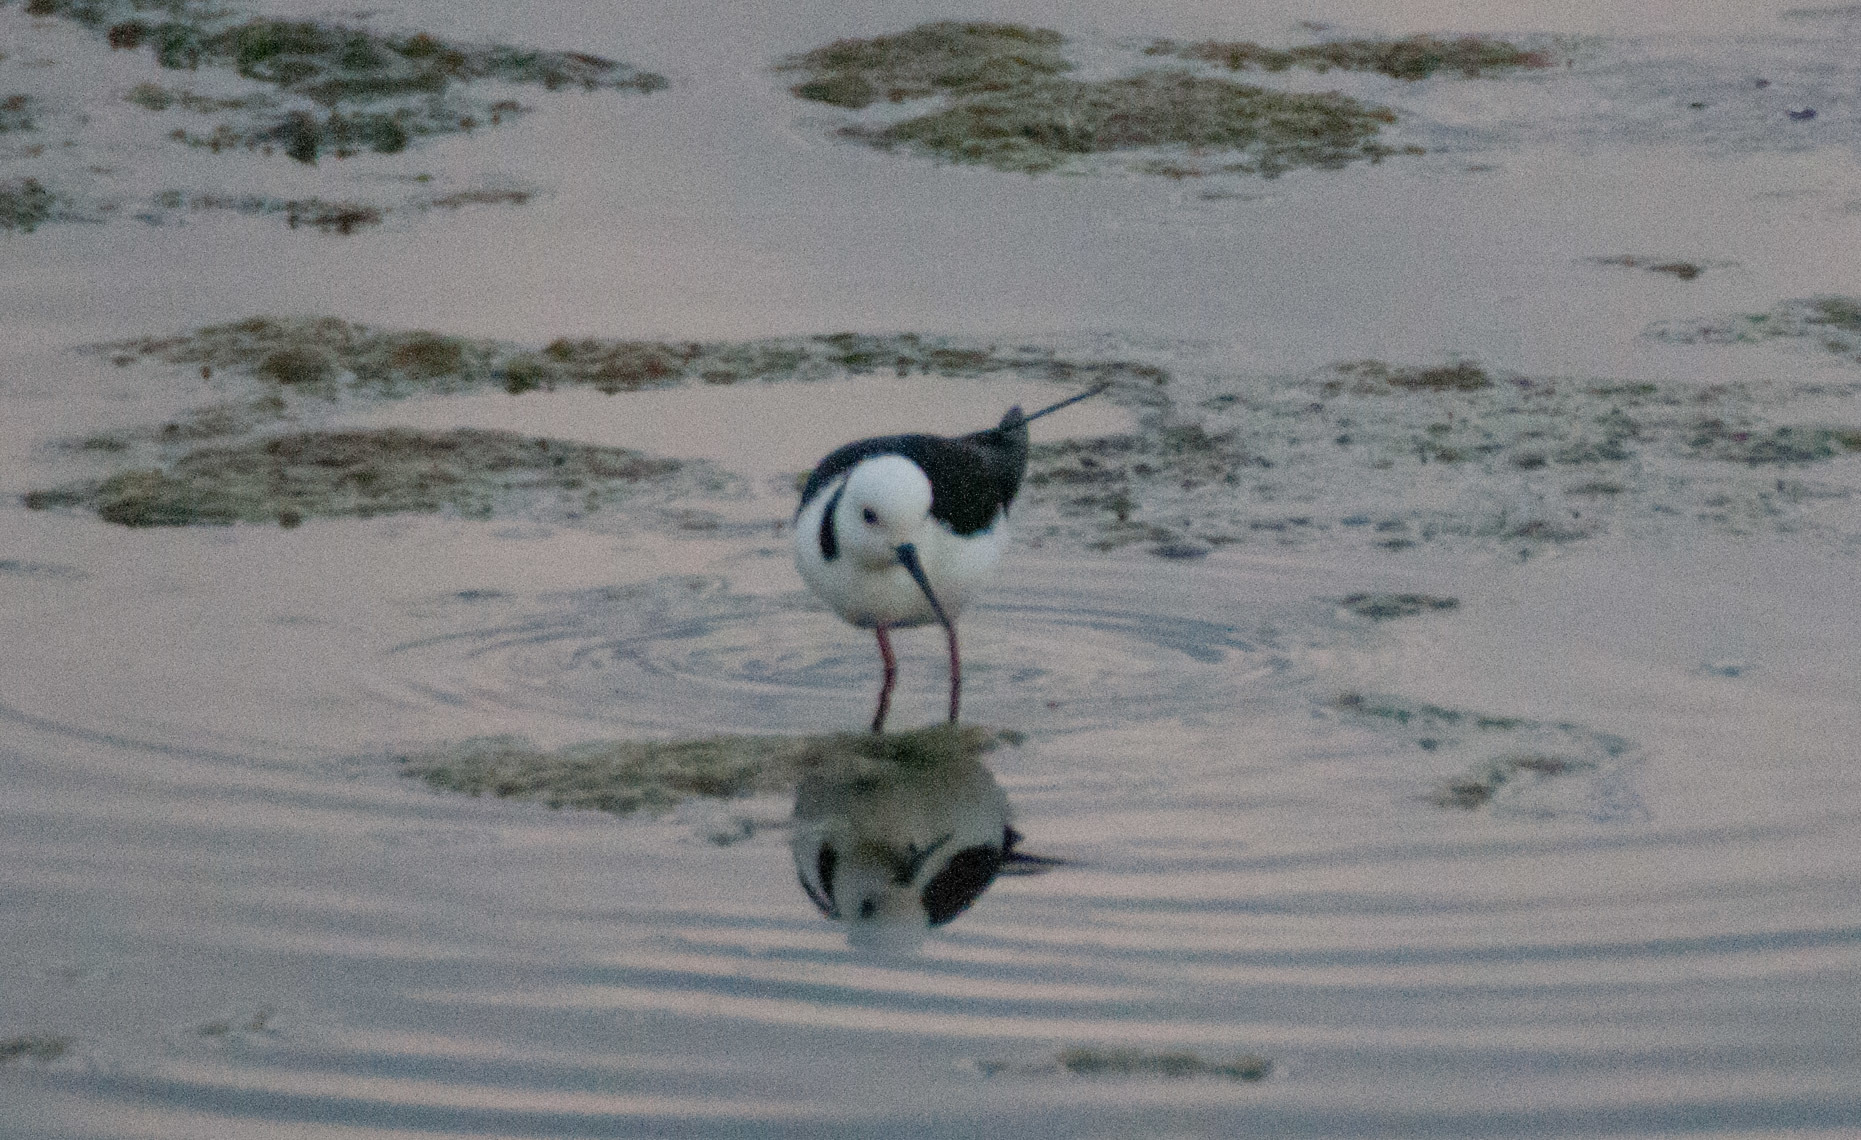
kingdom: Animalia
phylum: Chordata
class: Aves
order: Charadriiformes
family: Recurvirostridae
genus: Himantopus
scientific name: Himantopus leucocephalus
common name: White-headed stilt
